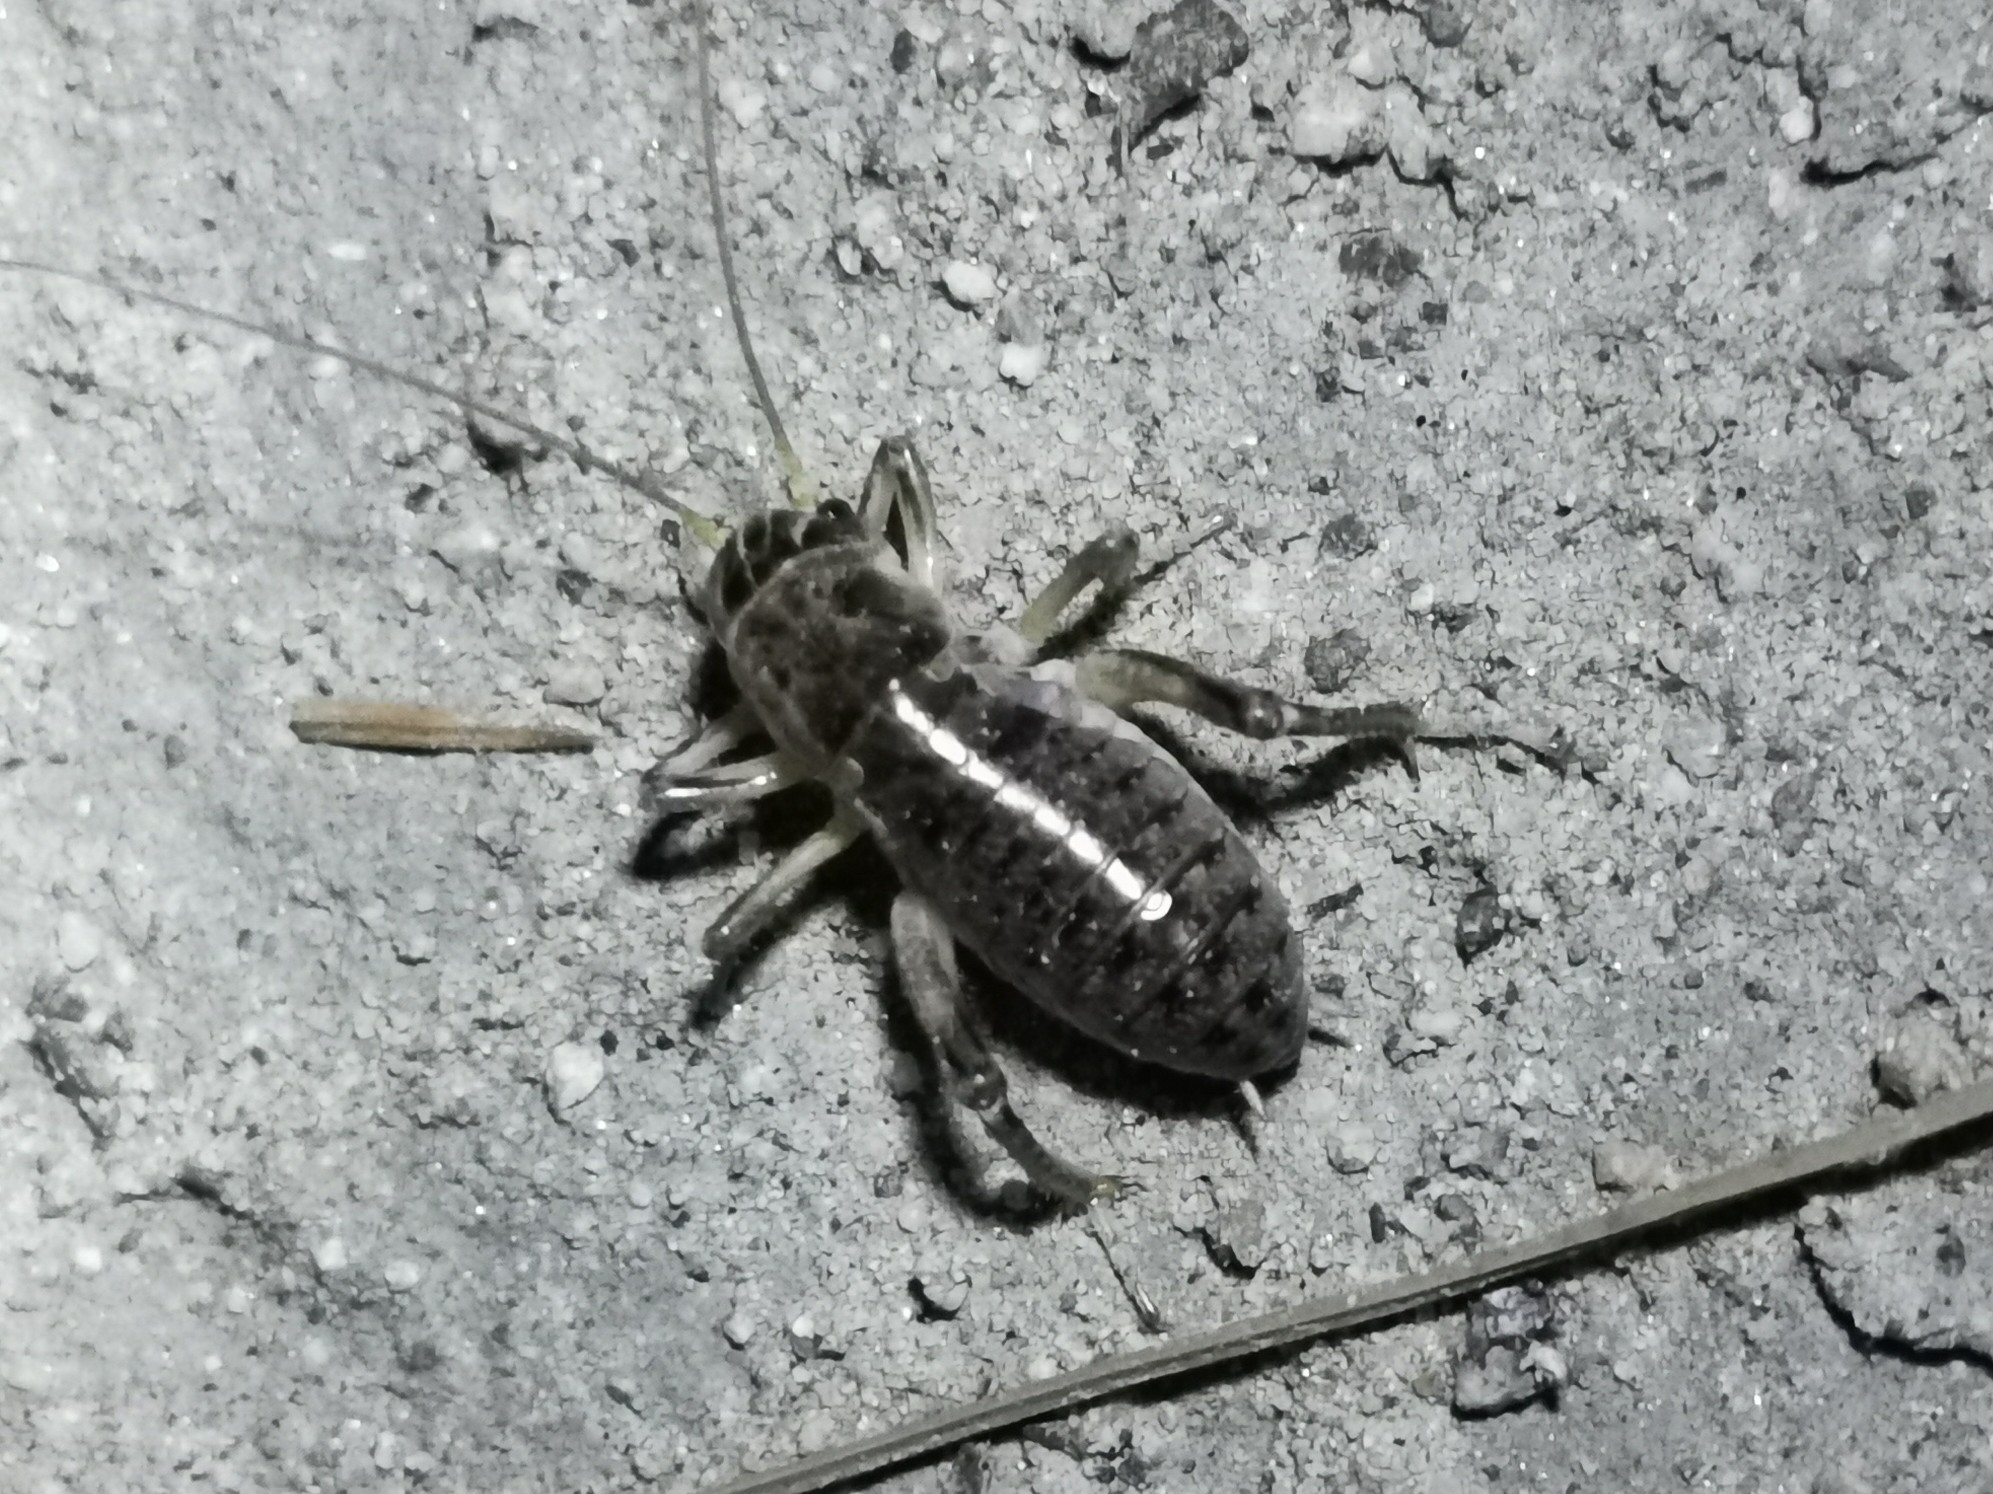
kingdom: Animalia
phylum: Arthropoda
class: Insecta
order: Orthoptera
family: Prophalangopsidae
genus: Cyphoderris
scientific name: Cyphoderris buckelli
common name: Buckell’s grig
